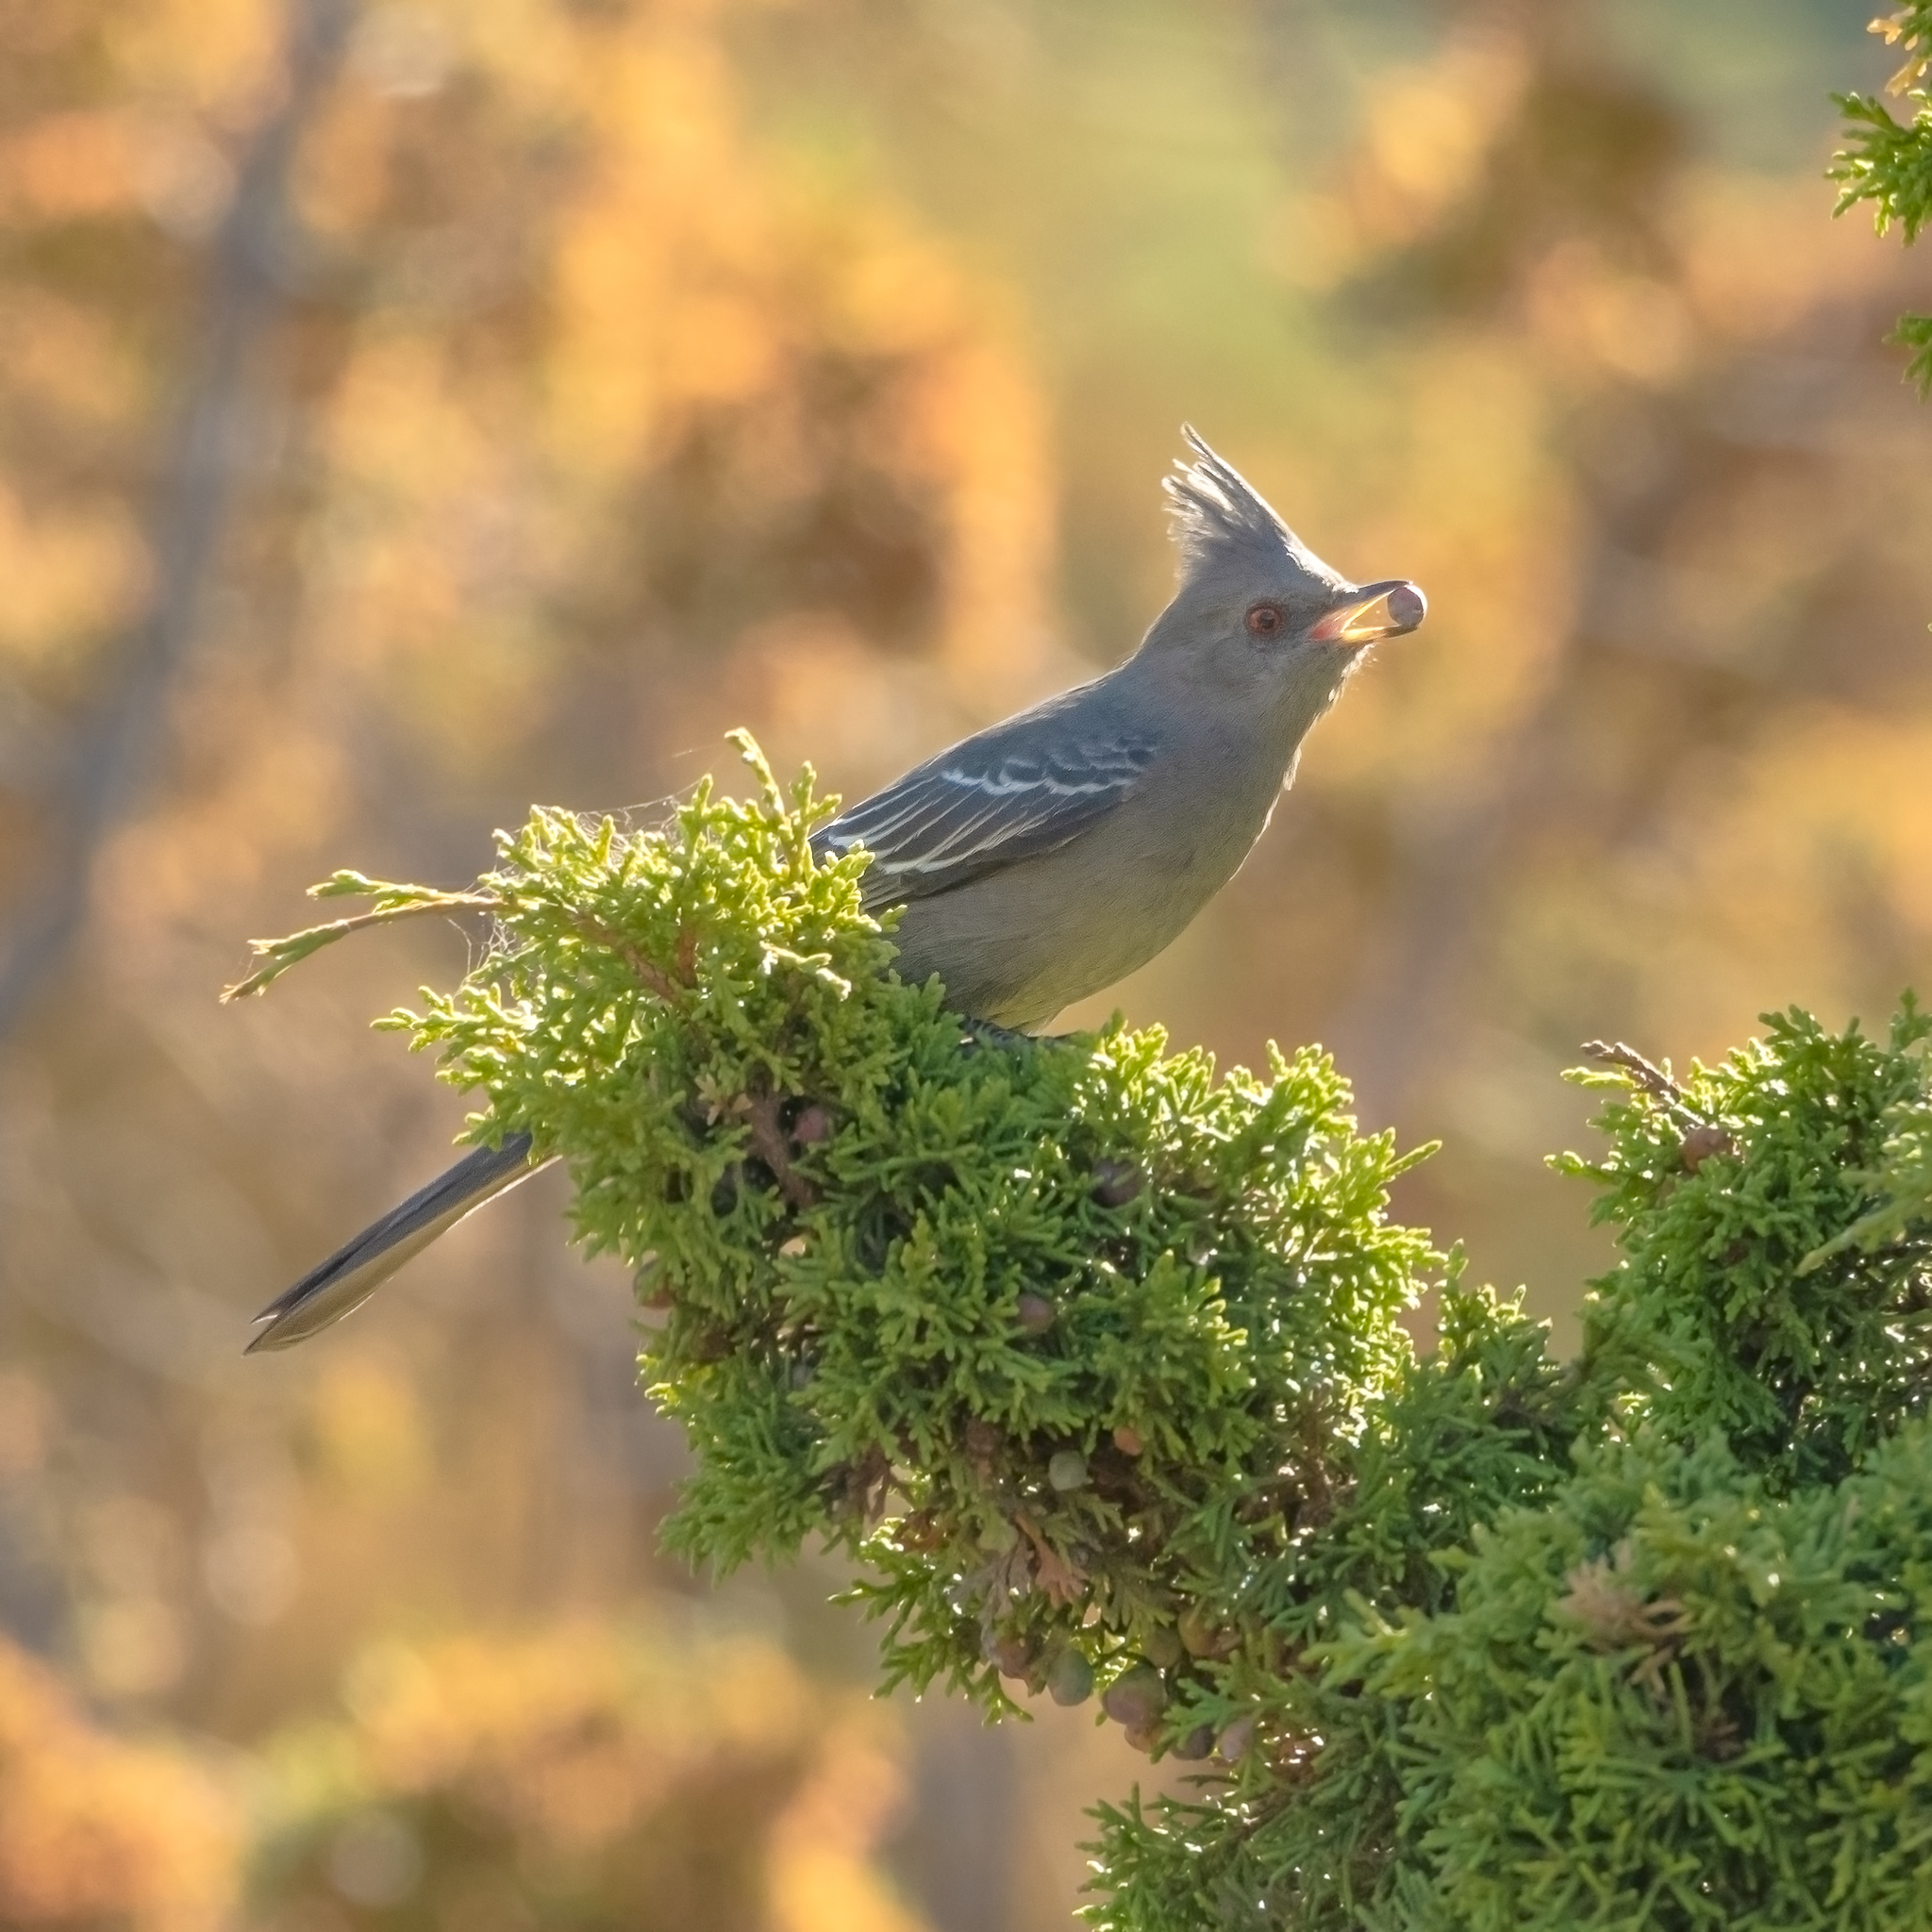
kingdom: Animalia
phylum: Chordata
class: Aves
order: Passeriformes
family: Ptilogonatidae
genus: Phainopepla
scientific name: Phainopepla nitens
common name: Phainopepla
